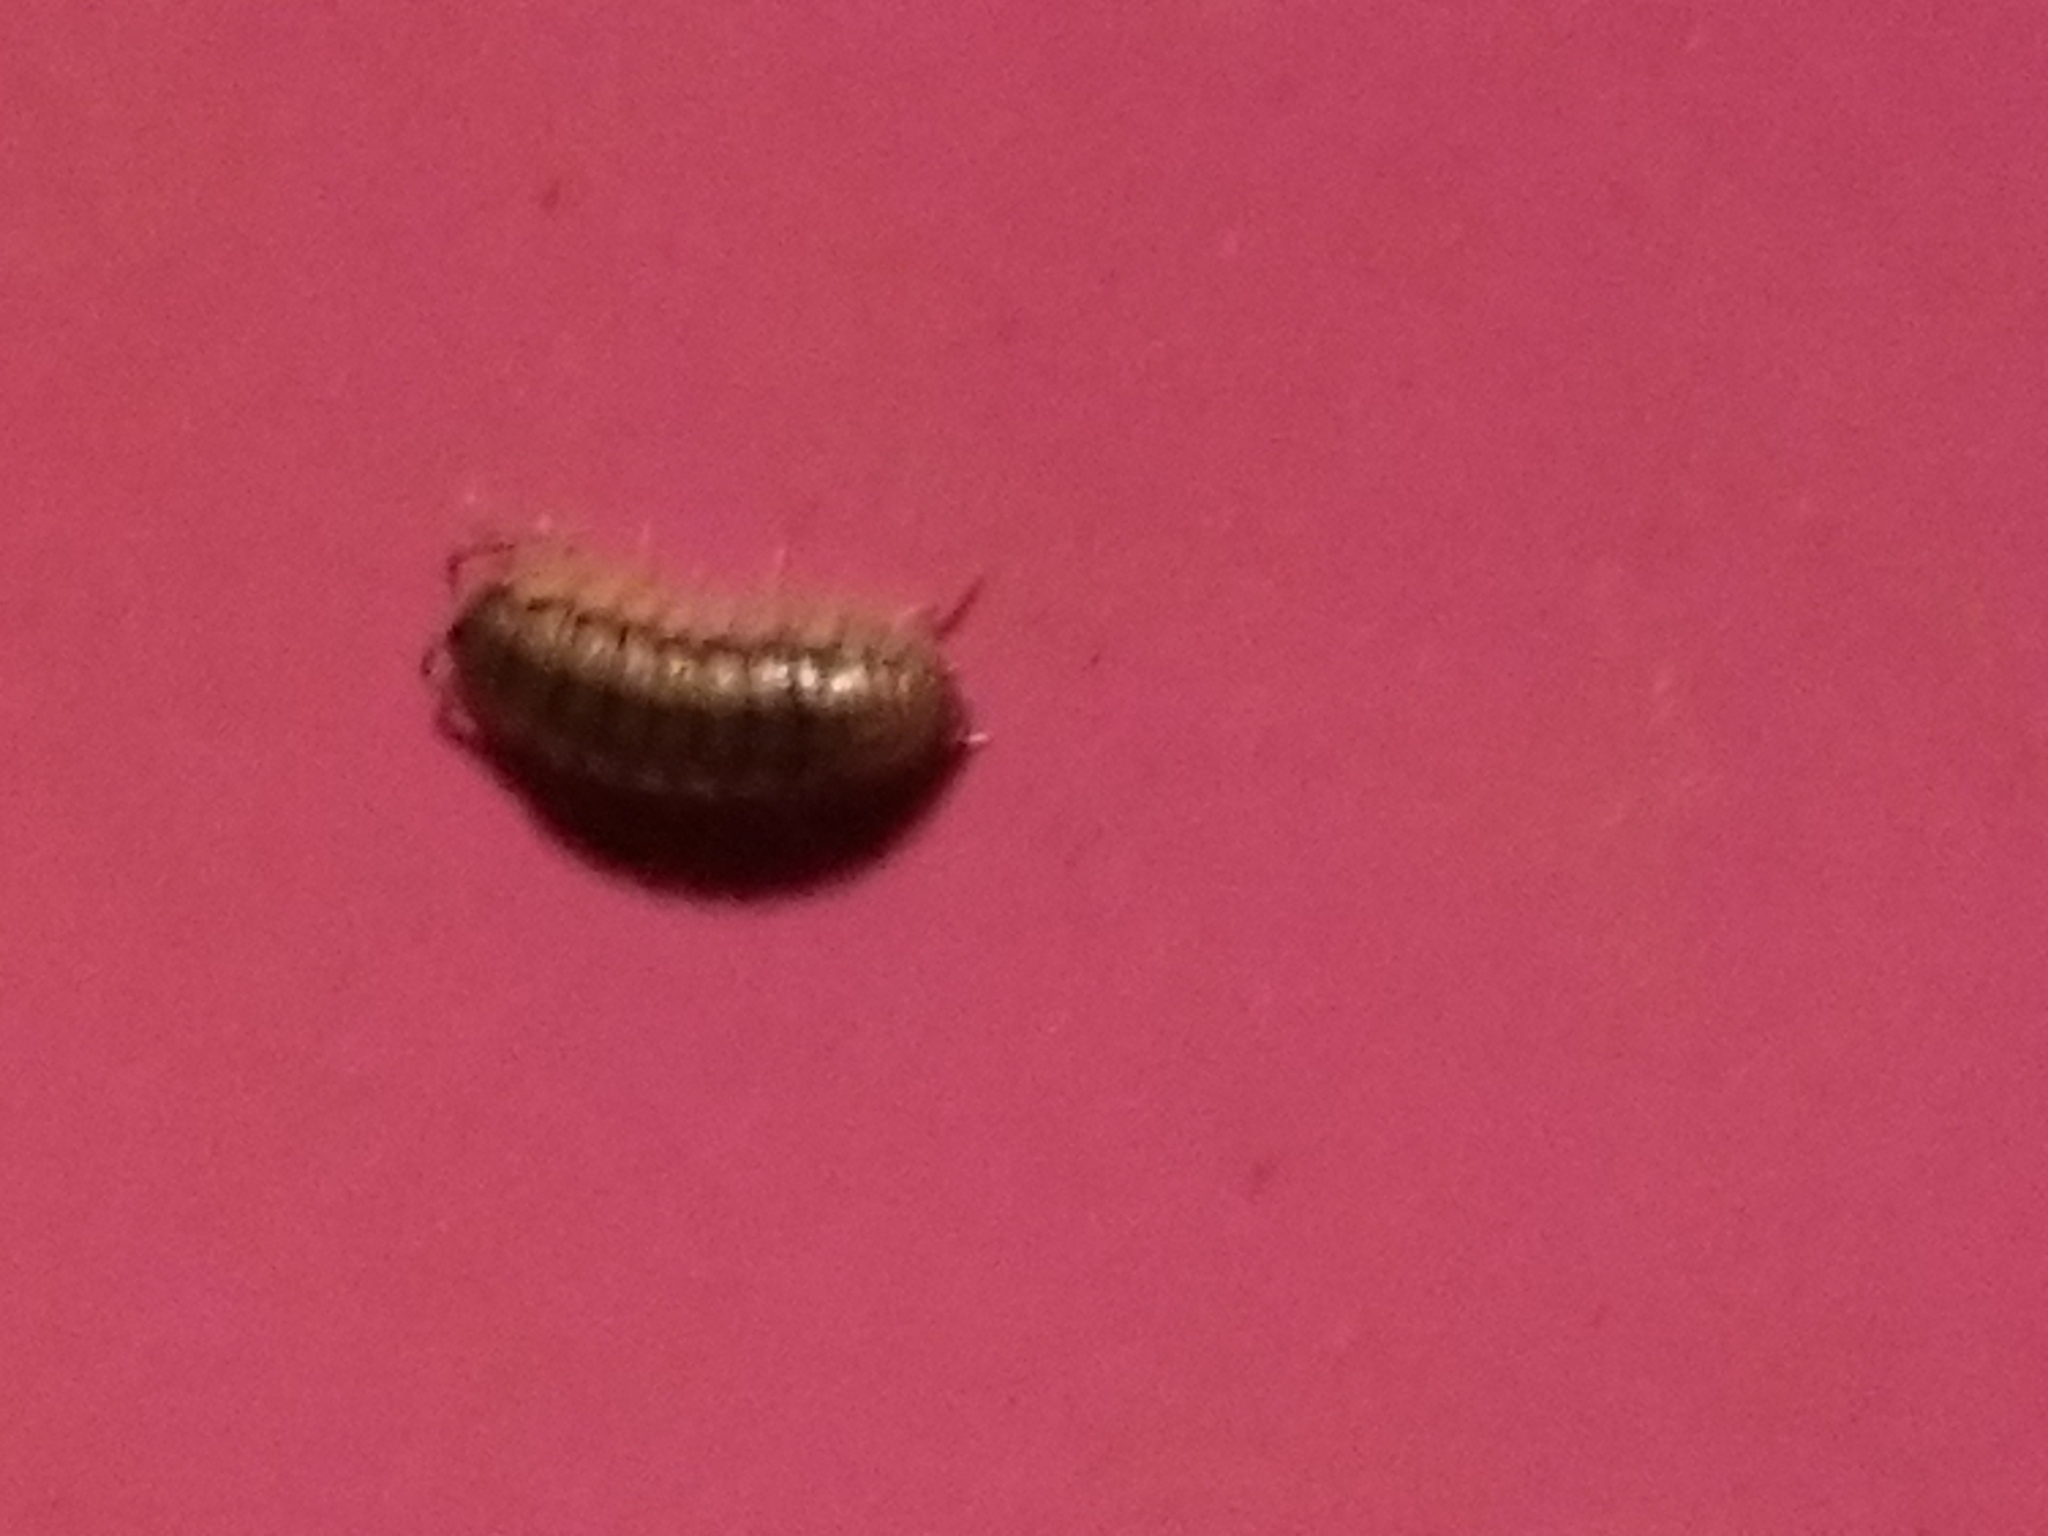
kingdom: Animalia
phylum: Arthropoda
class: Malacostraca
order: Isopoda
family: Armadillidiidae
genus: Armadillidium
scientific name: Armadillidium nasatum
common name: Isopod
